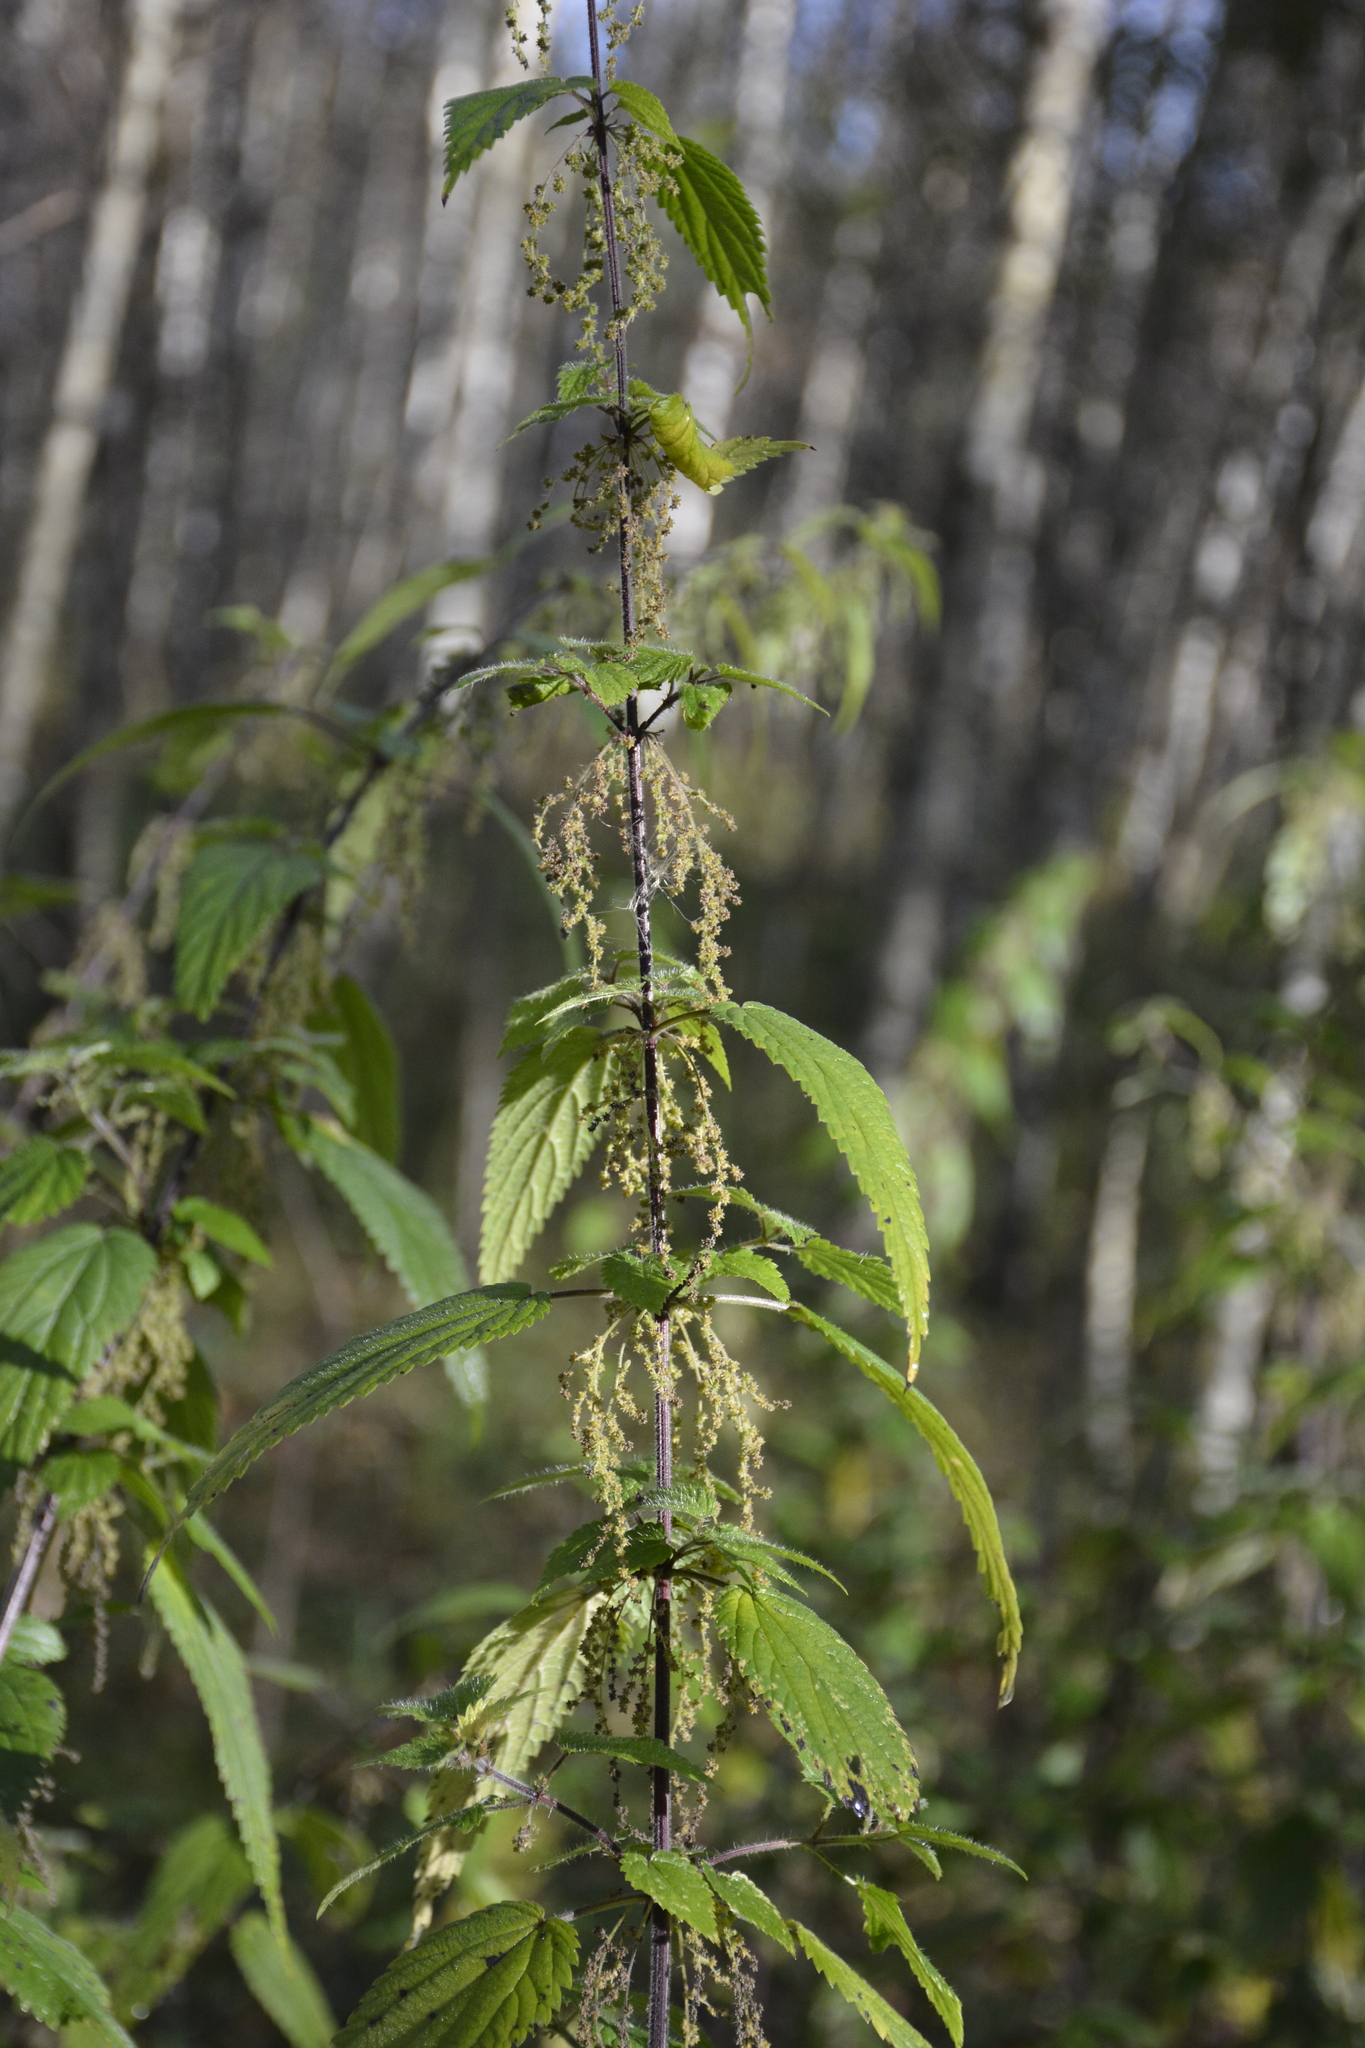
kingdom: Plantae
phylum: Tracheophyta
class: Magnoliopsida
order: Rosales
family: Urticaceae
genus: Urtica
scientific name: Urtica dioica
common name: Common nettle
